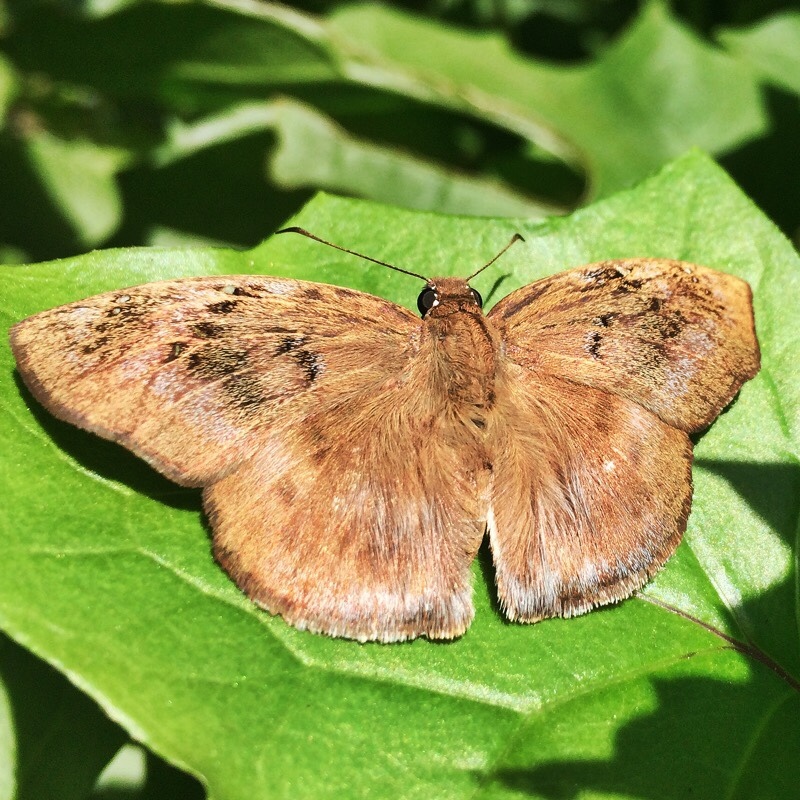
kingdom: Animalia
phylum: Arthropoda
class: Insecta
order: Lepidoptera
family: Hesperiidae
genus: Tagiades
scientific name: Tagiades flesus
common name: Clouded flat
